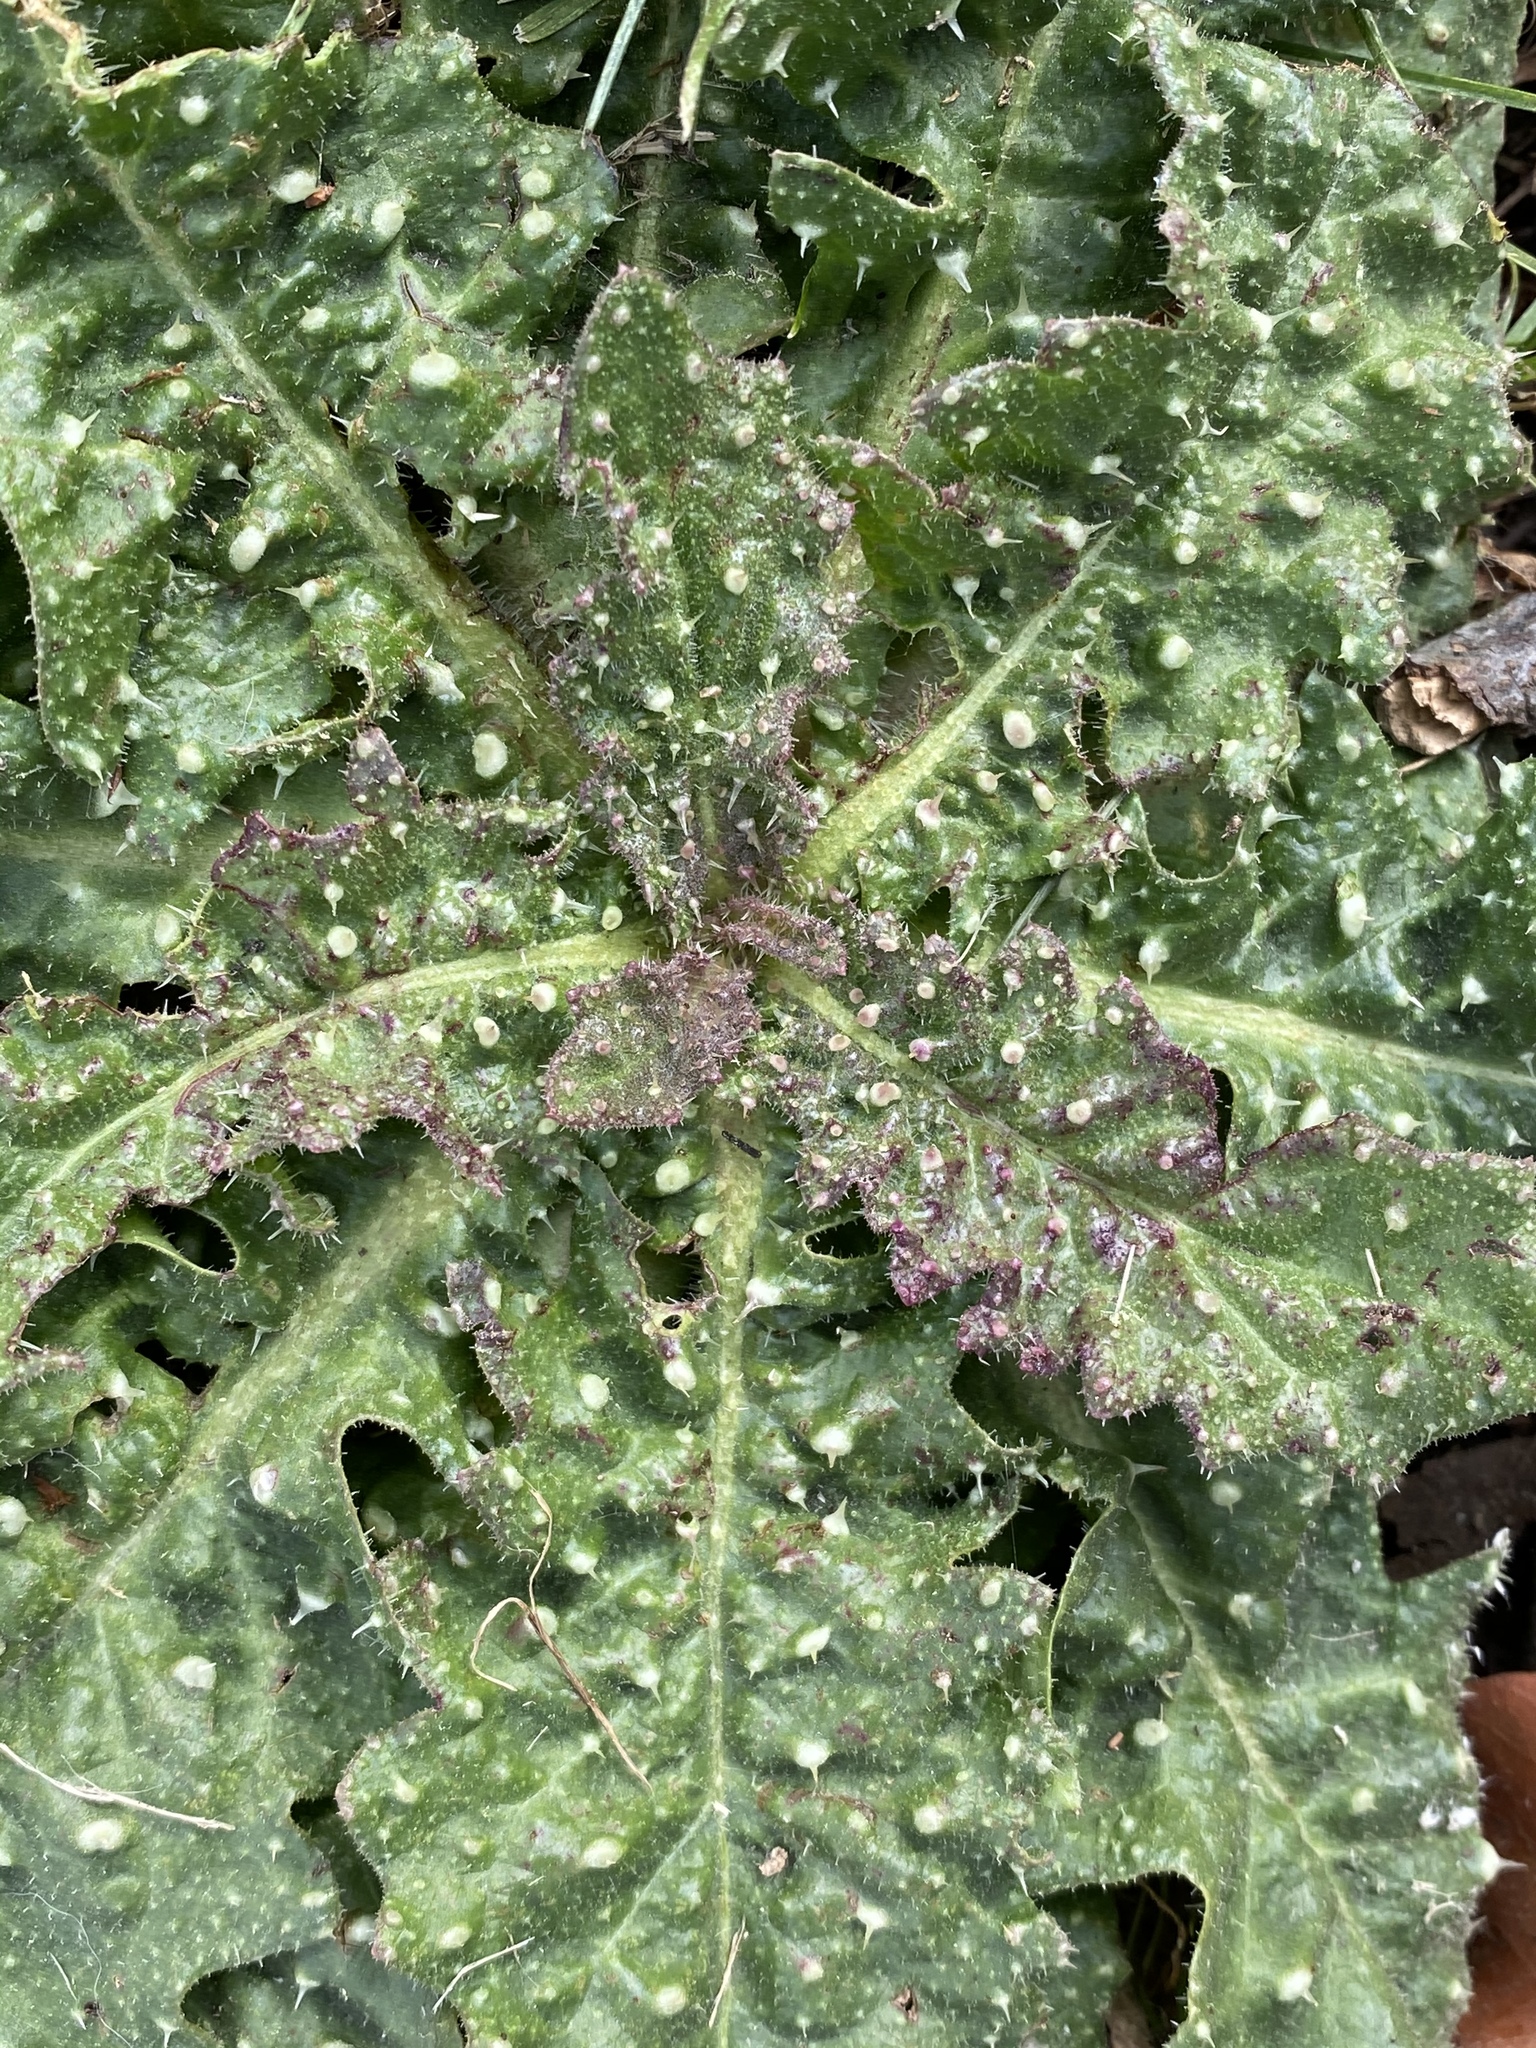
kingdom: Plantae
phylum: Tracheophyta
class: Magnoliopsida
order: Asterales
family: Asteraceae
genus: Helminthotheca
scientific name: Helminthotheca echioides
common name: Ox-tongue
